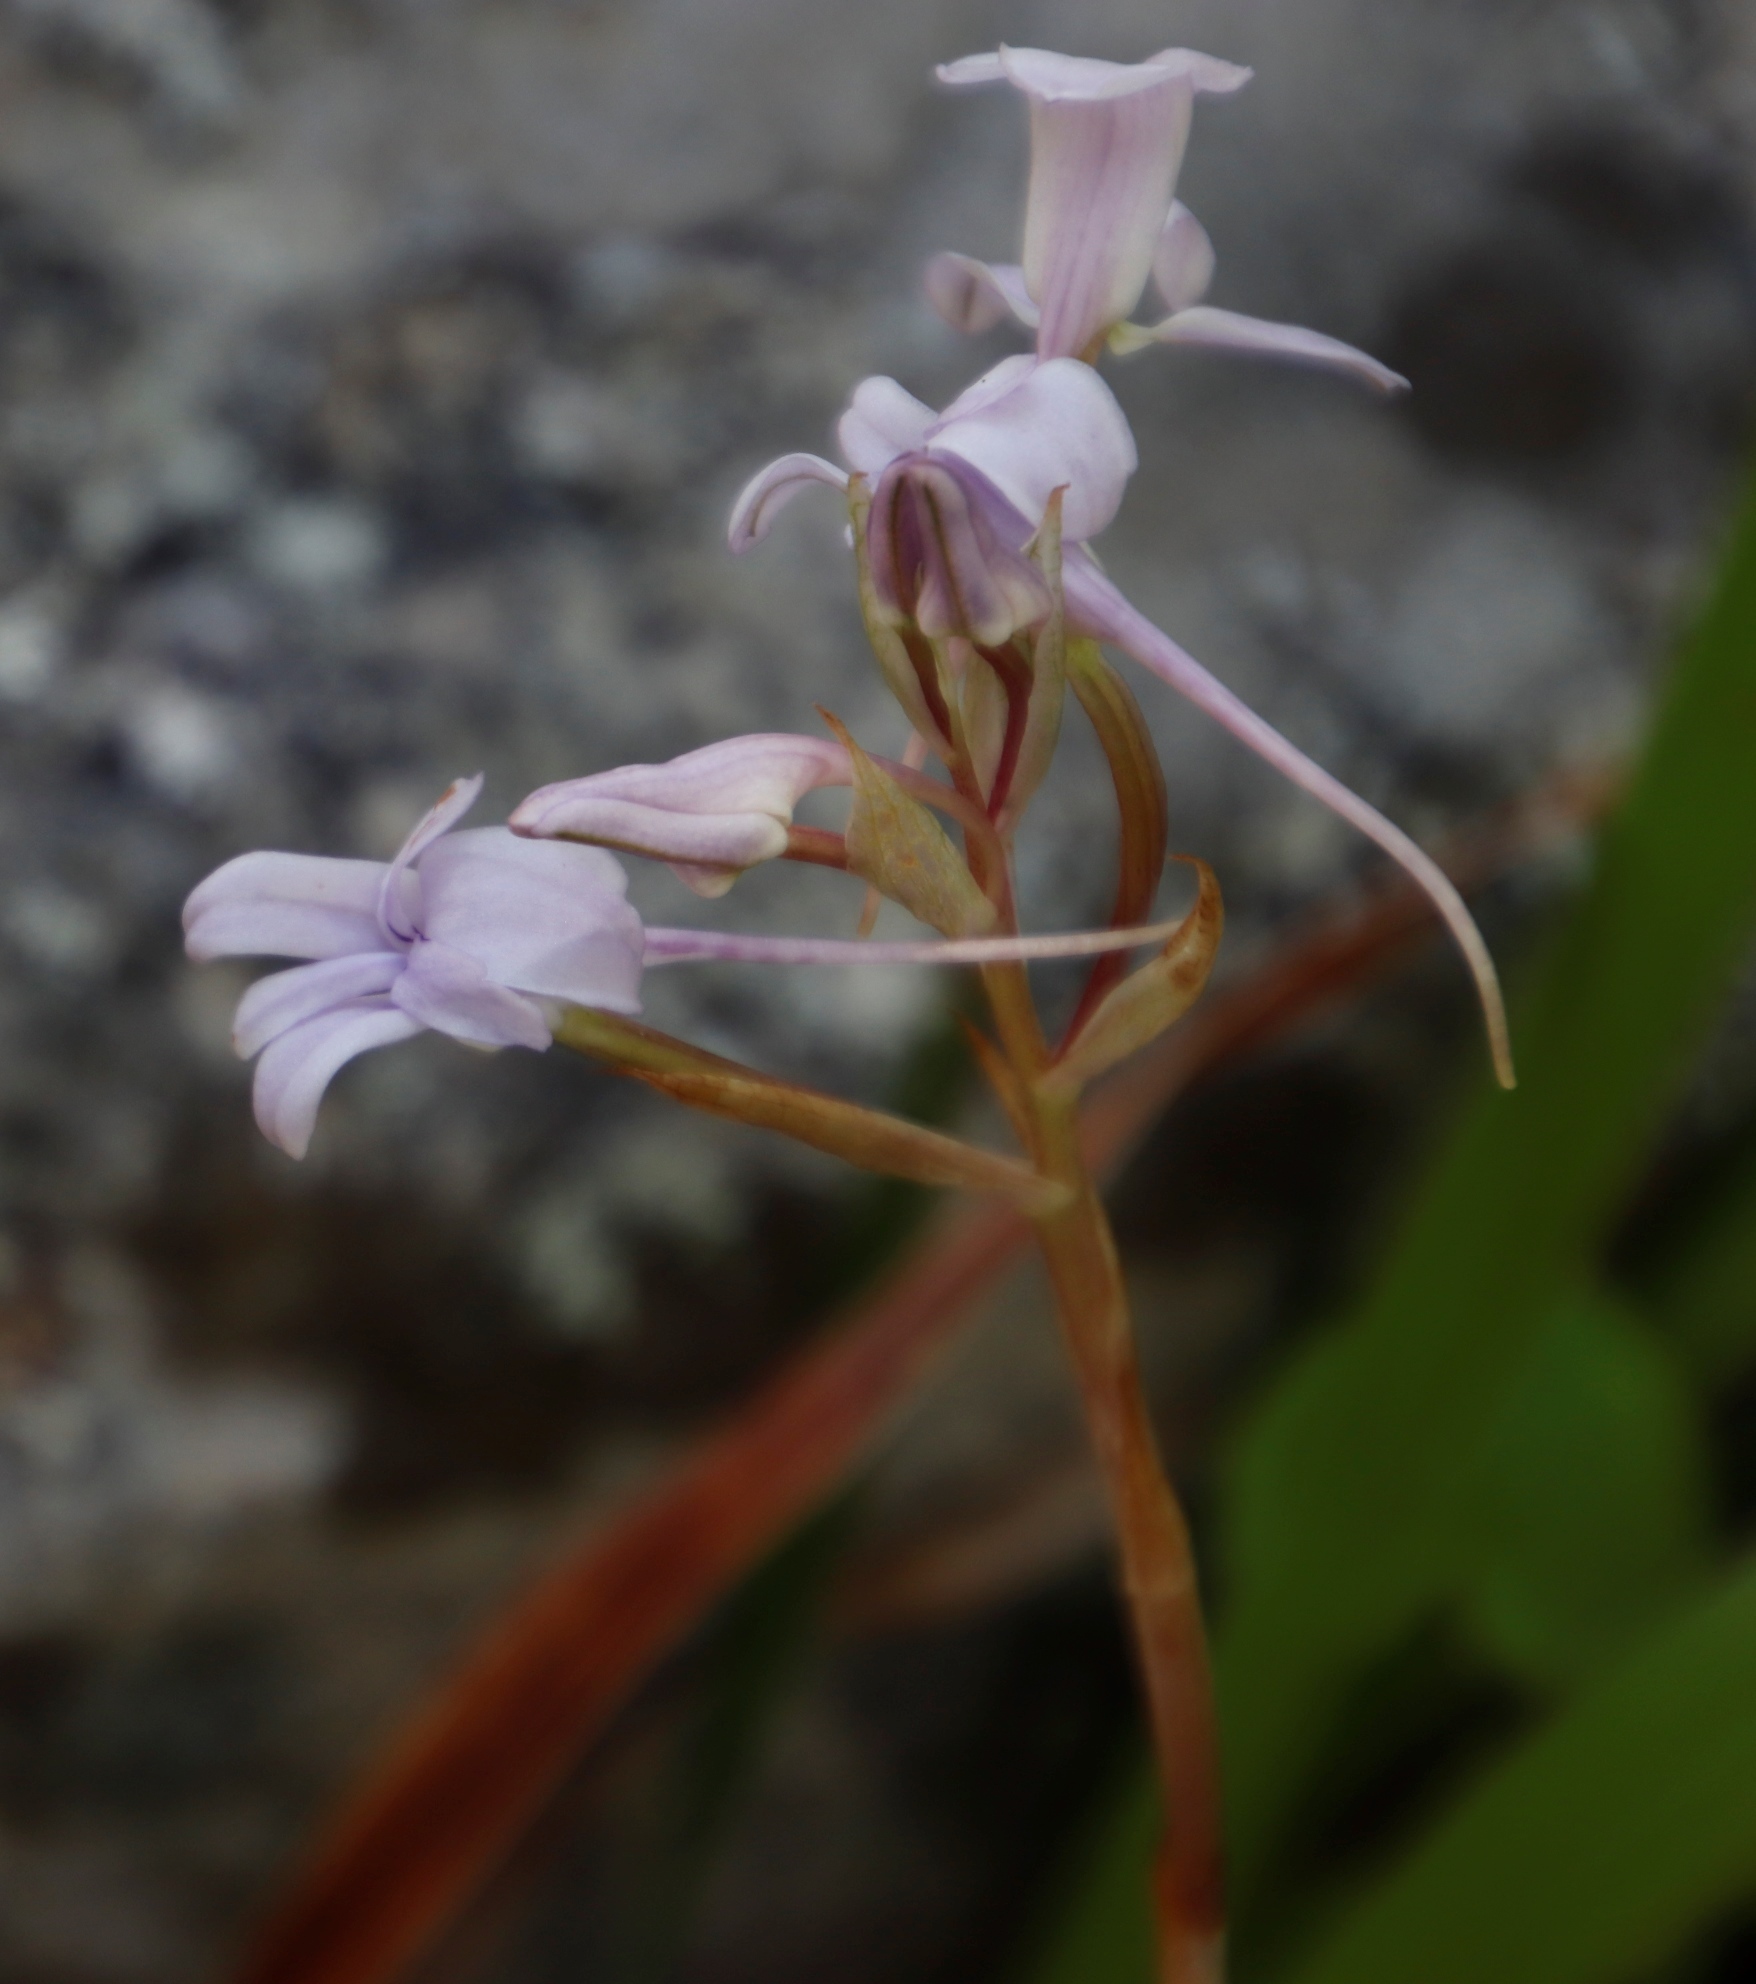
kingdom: Plantae
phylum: Tracheophyta
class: Liliopsida
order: Asparagales
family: Orchidaceae
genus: Disa
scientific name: Disa harveyana
